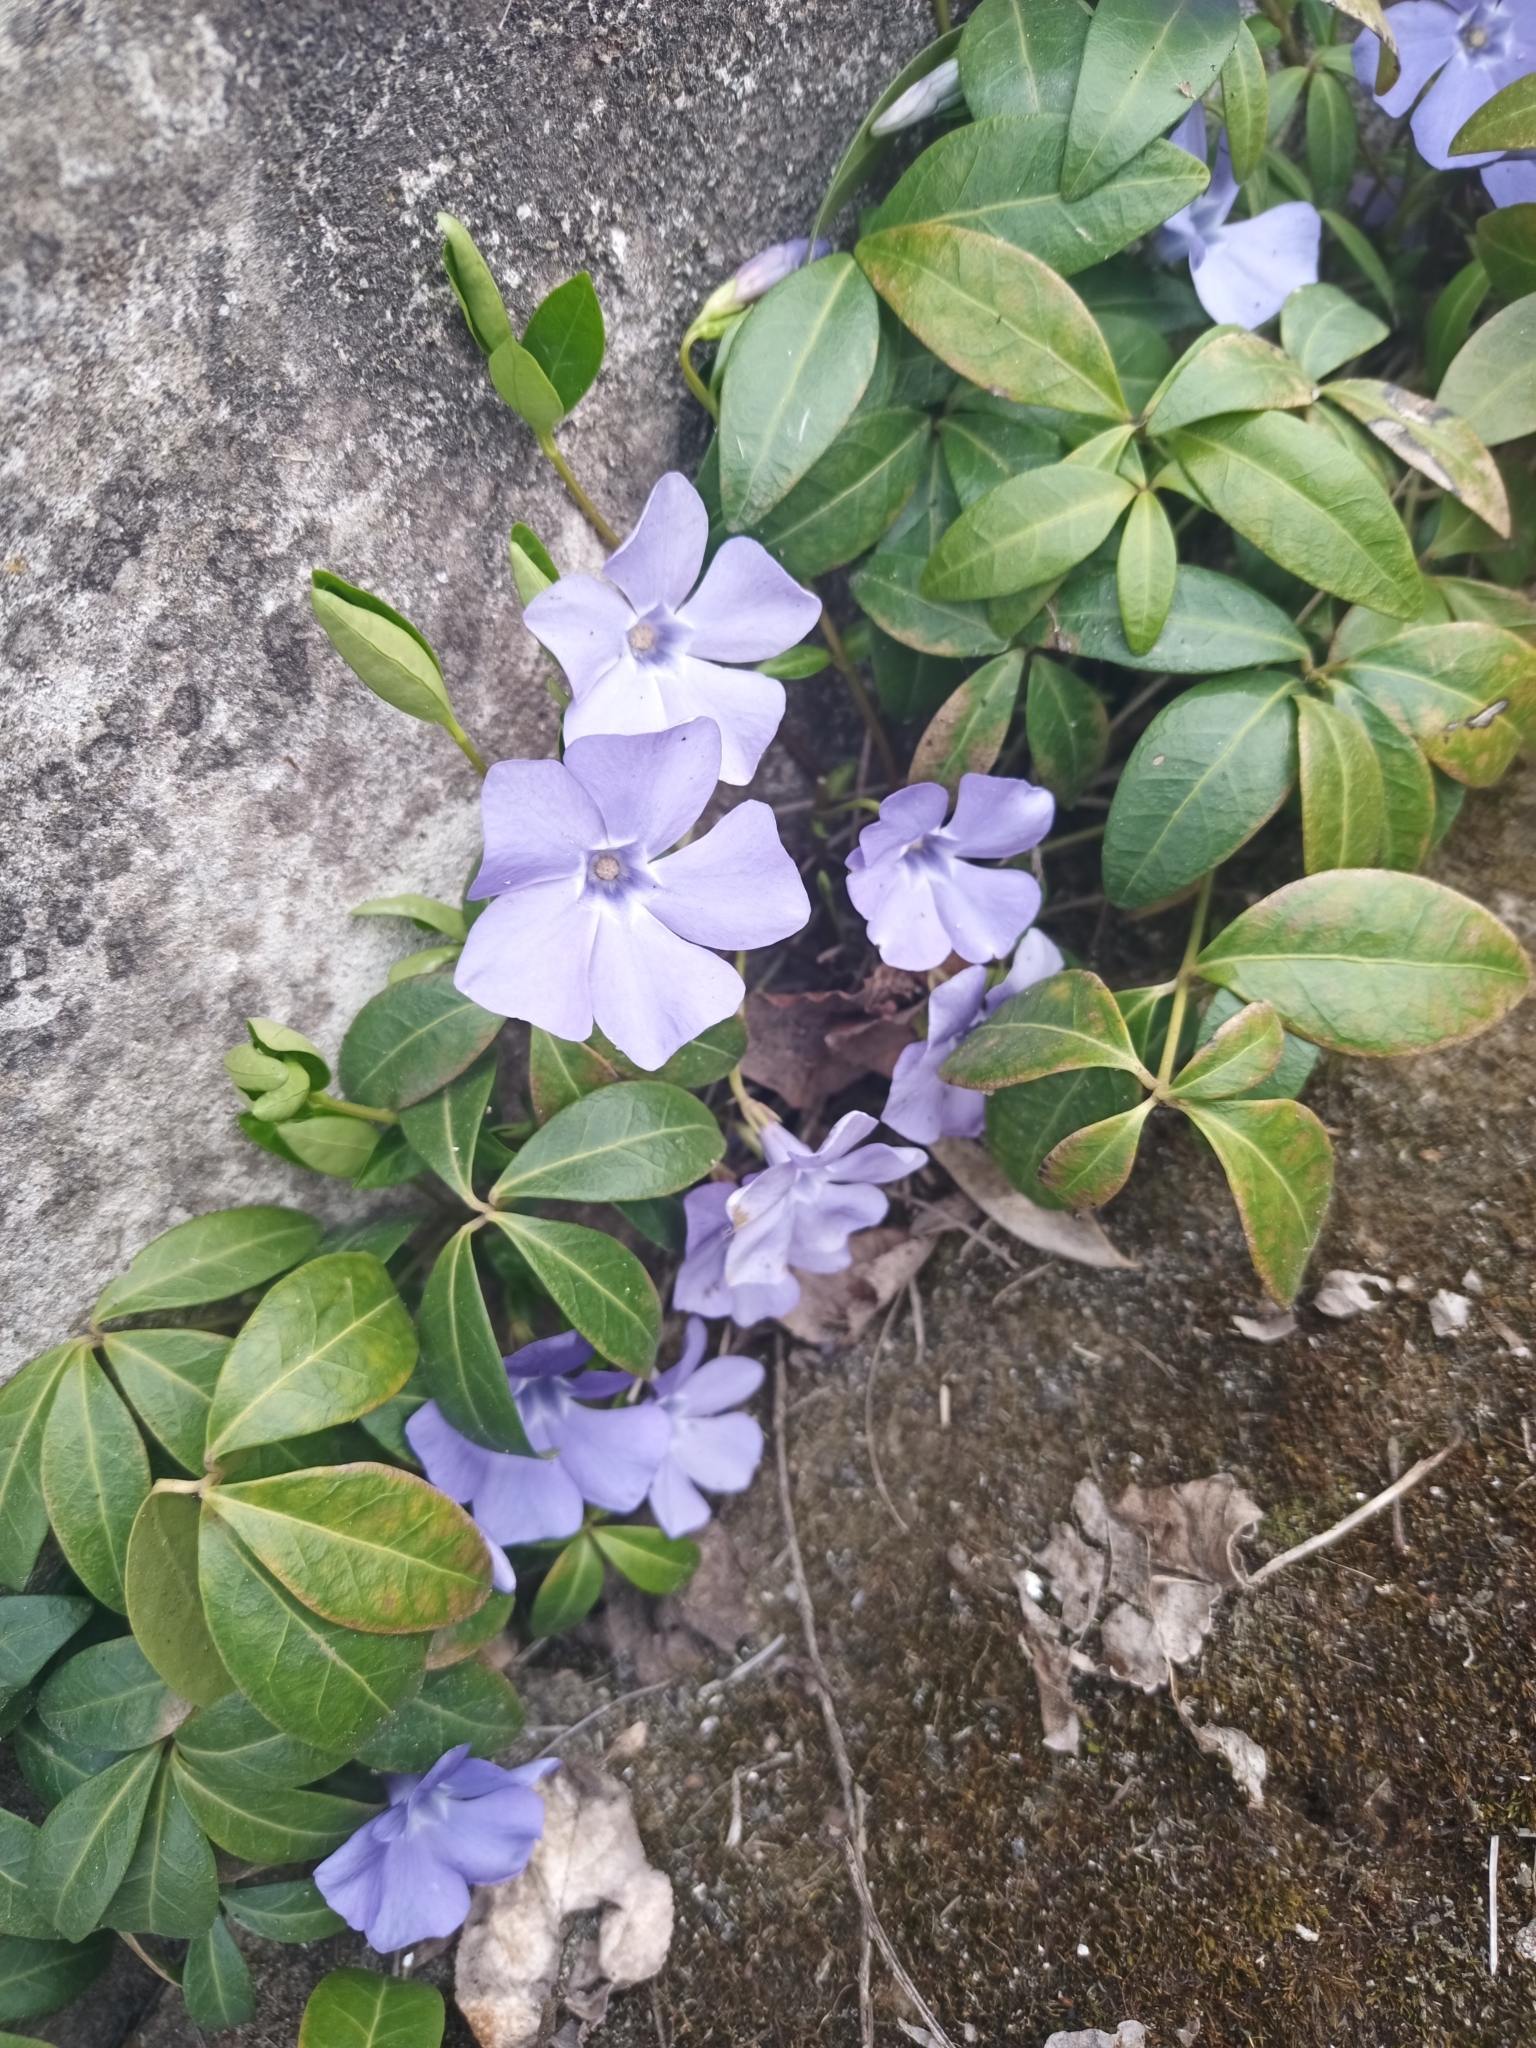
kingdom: Plantae
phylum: Tracheophyta
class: Magnoliopsida
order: Gentianales
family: Apocynaceae
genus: Vinca
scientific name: Vinca minor
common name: Lesser periwinkle
